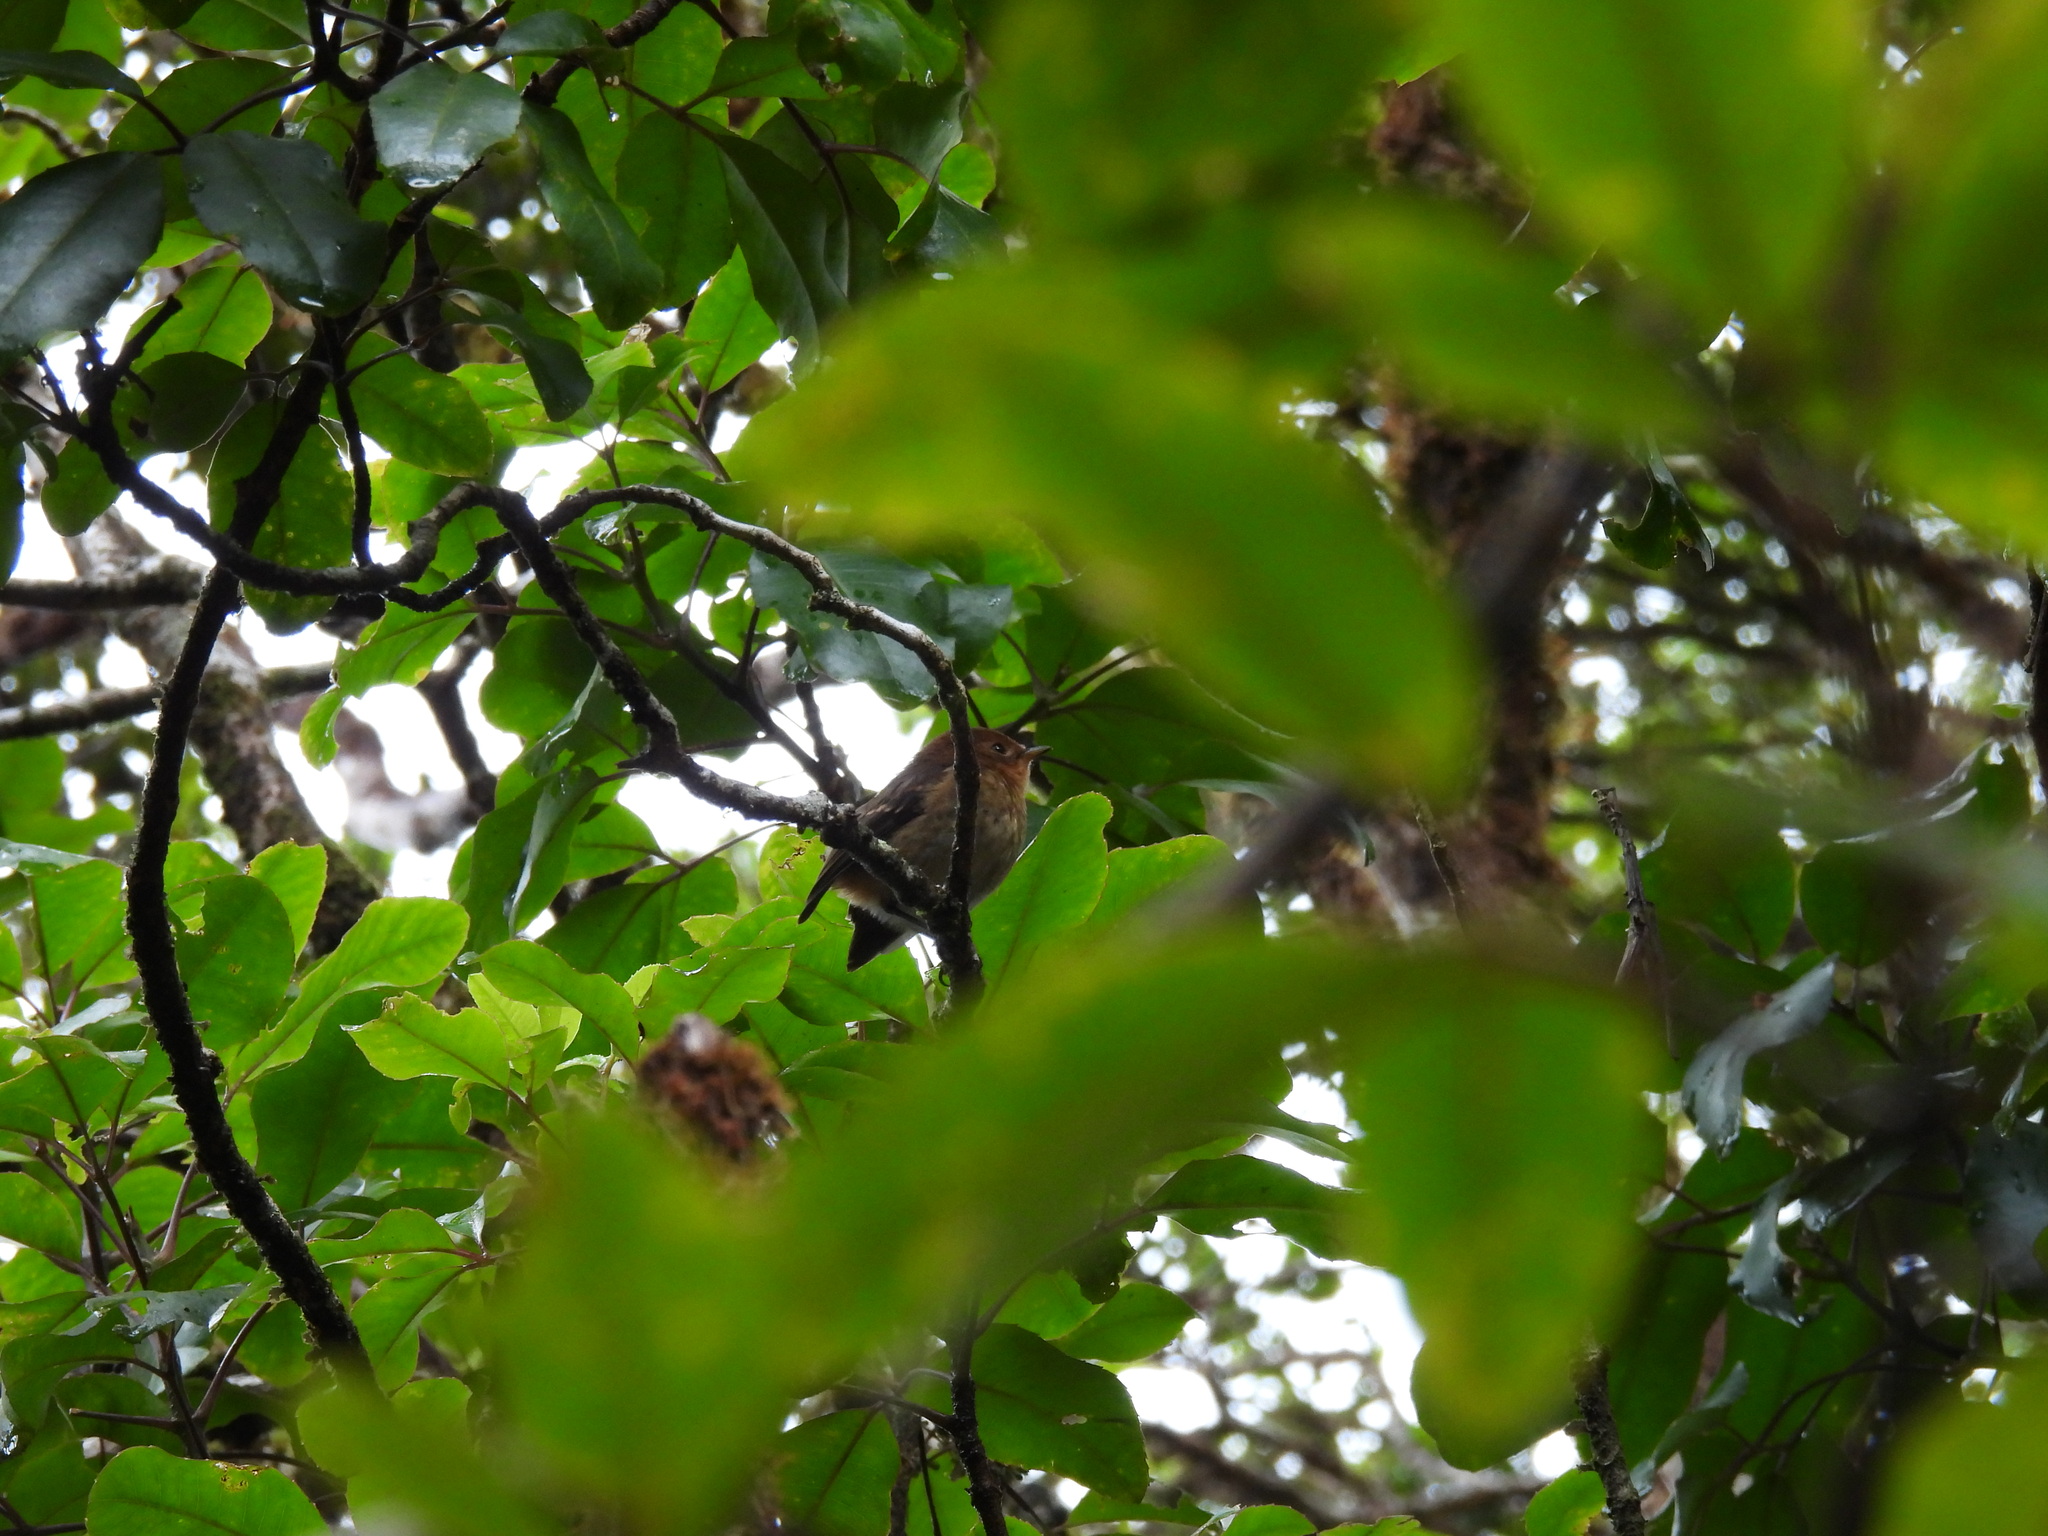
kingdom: Animalia
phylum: Chordata
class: Aves
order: Passeriformes
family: Monarchidae
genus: Chasiempis
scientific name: Chasiempis sclateri
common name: Kauai elepaio
